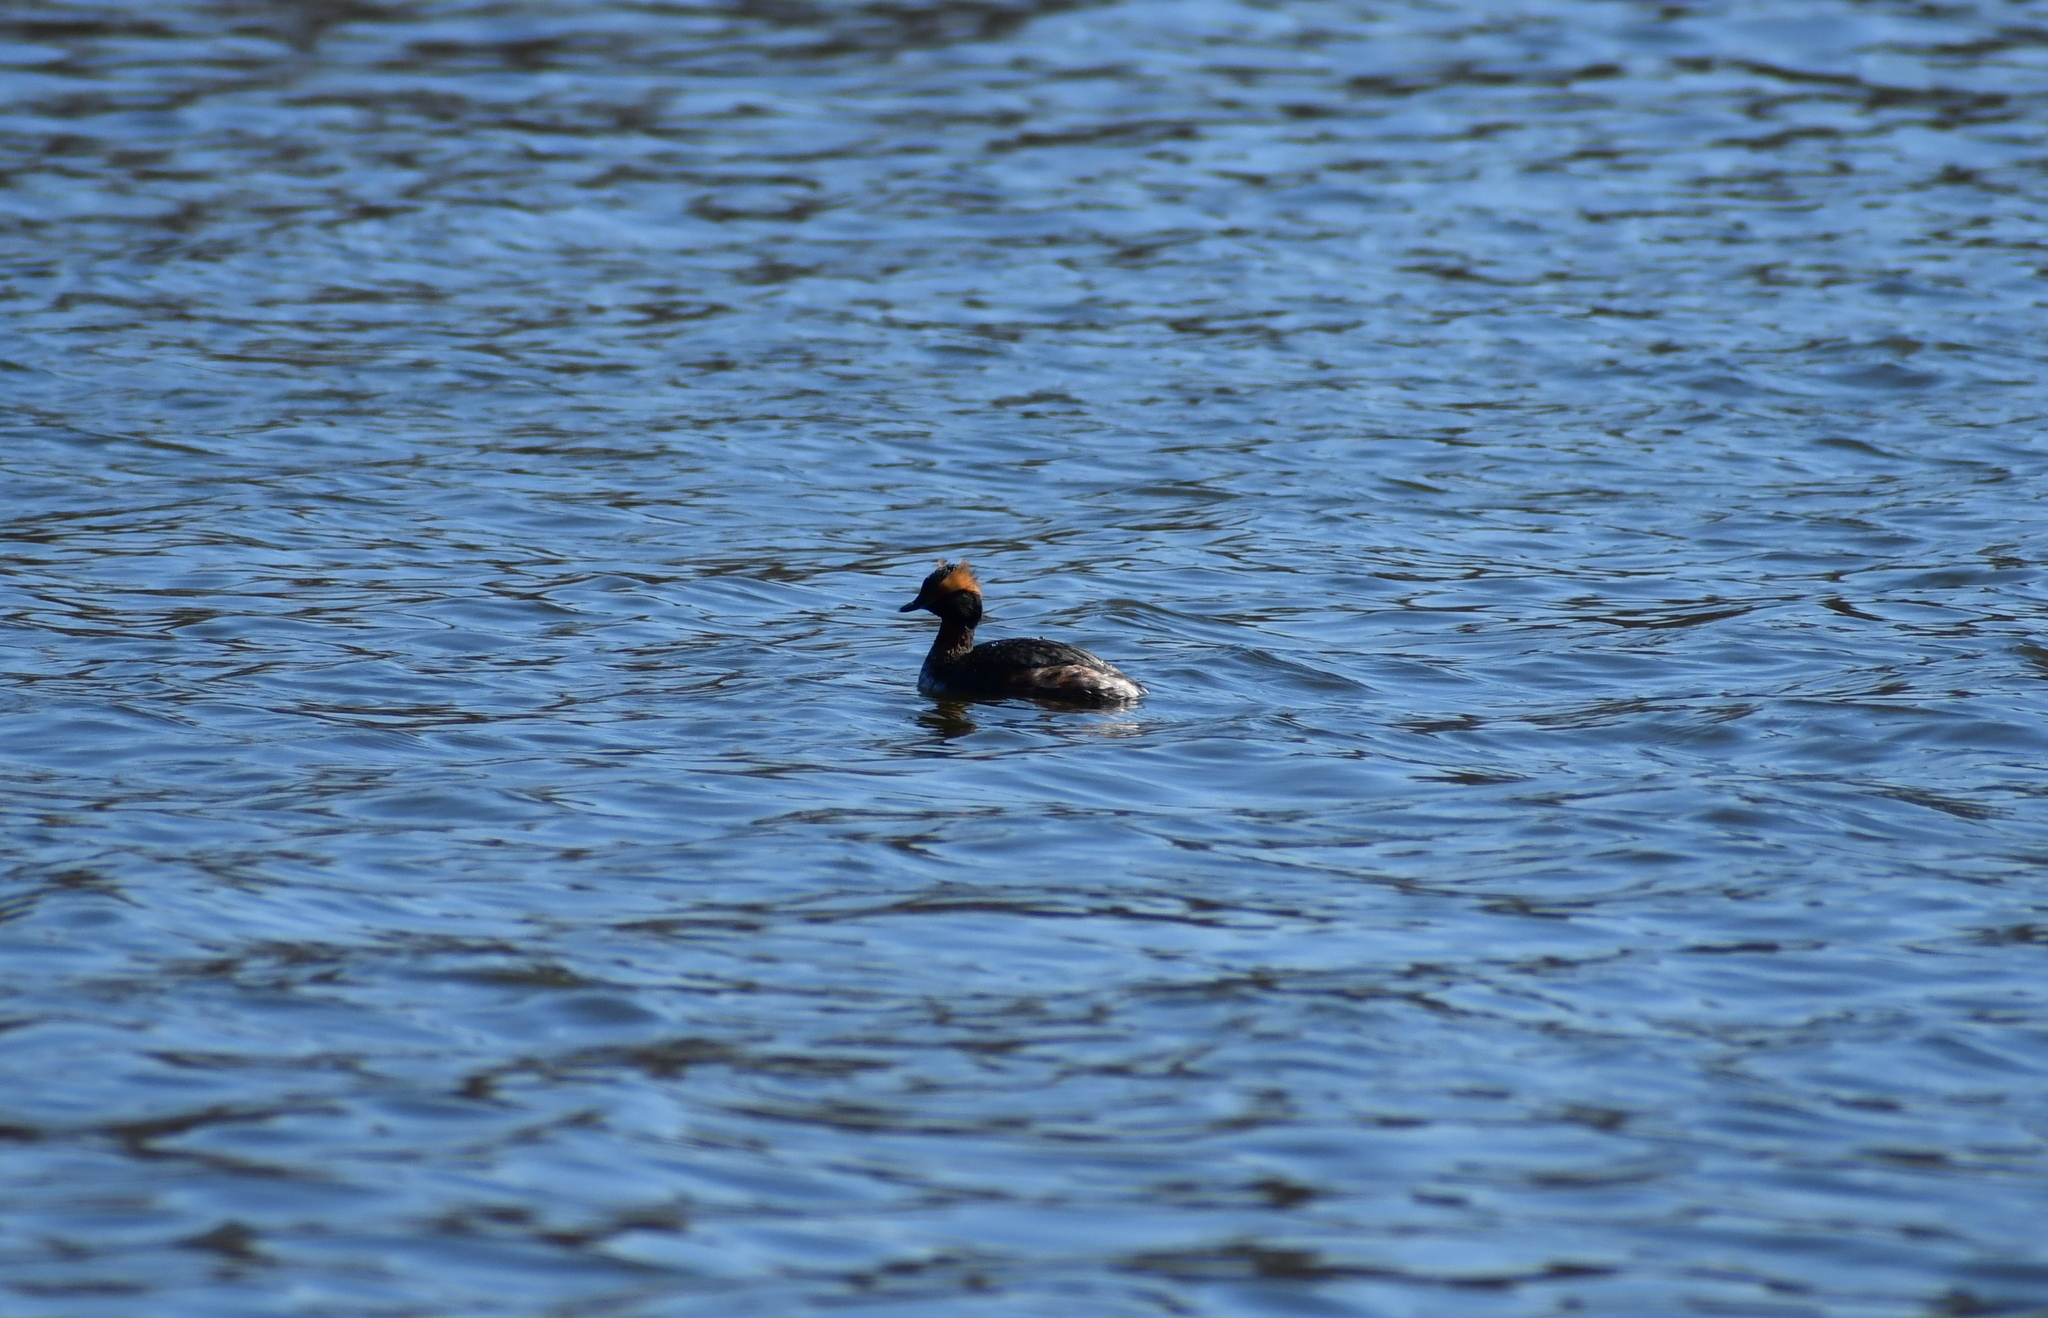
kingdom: Animalia
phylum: Chordata
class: Aves
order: Podicipediformes
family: Podicipedidae
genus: Podiceps
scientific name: Podiceps auritus
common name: Horned grebe
